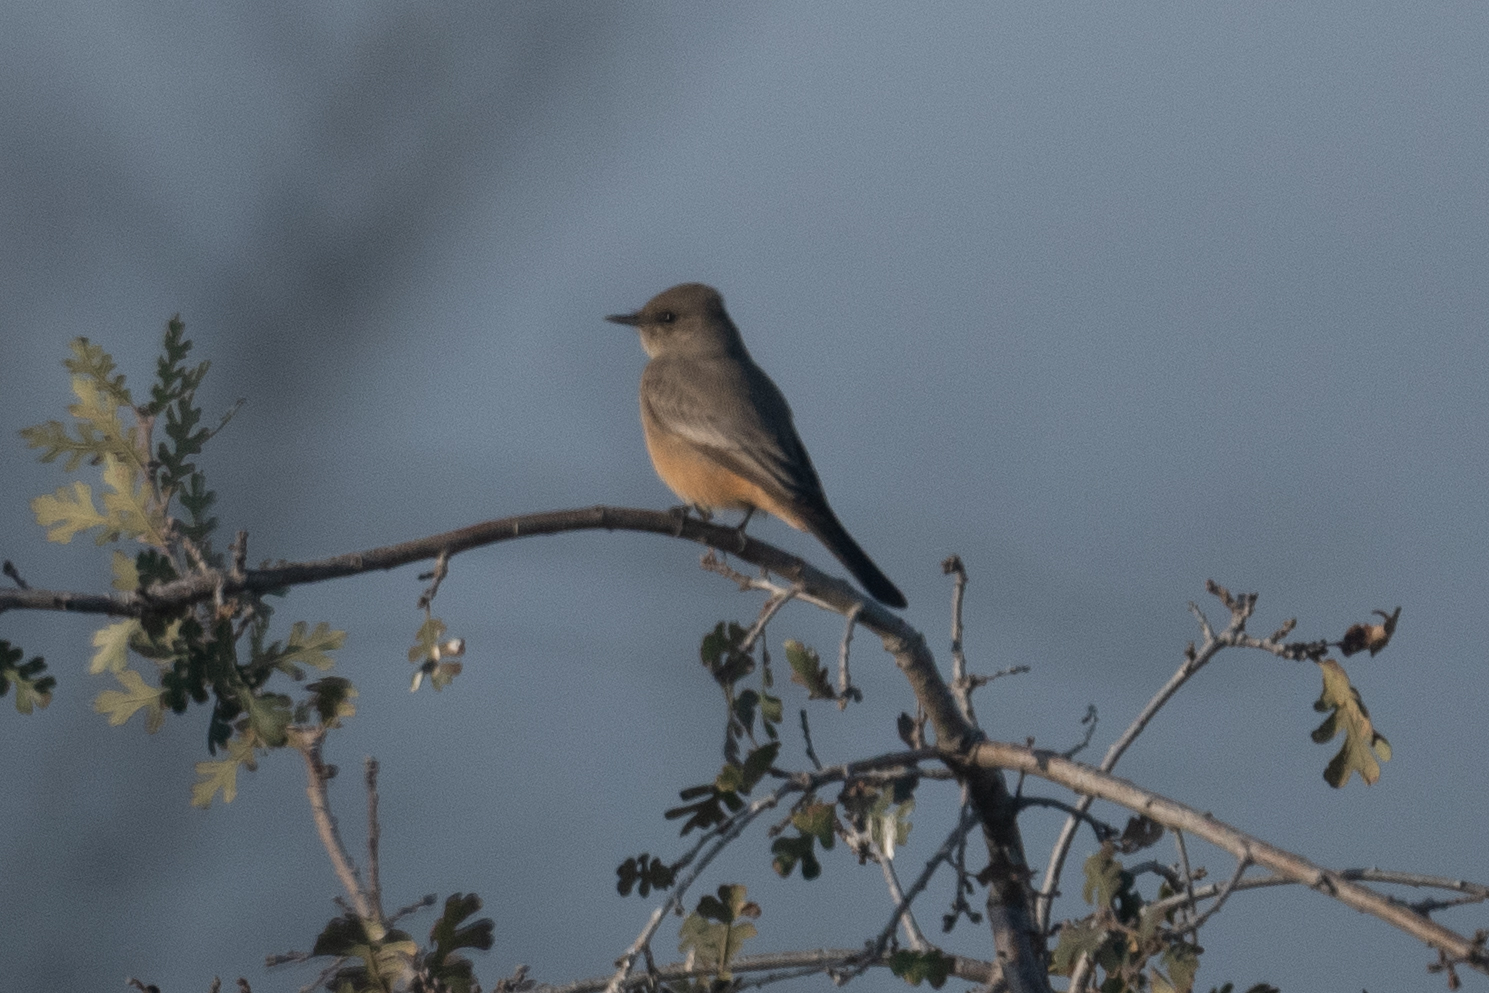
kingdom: Animalia
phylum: Chordata
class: Aves
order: Passeriformes
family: Tyrannidae
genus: Sayornis
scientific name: Sayornis saya
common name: Say's phoebe
